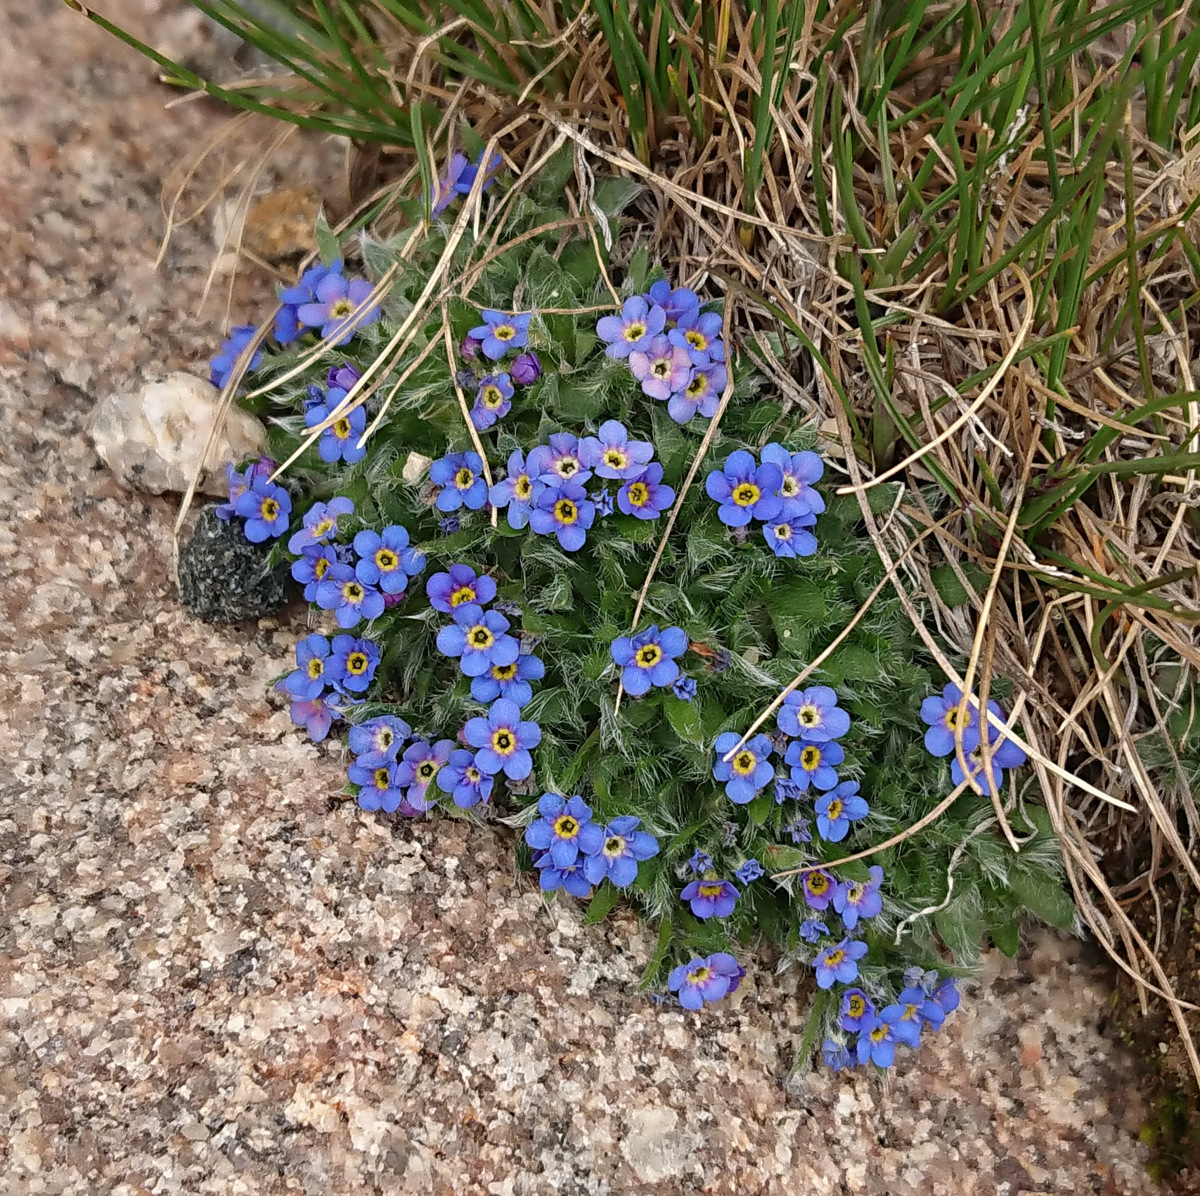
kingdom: Plantae
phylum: Tracheophyta
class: Magnoliopsida
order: Boraginales
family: Boraginaceae
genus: Eritrichium
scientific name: Eritrichium argenteum
